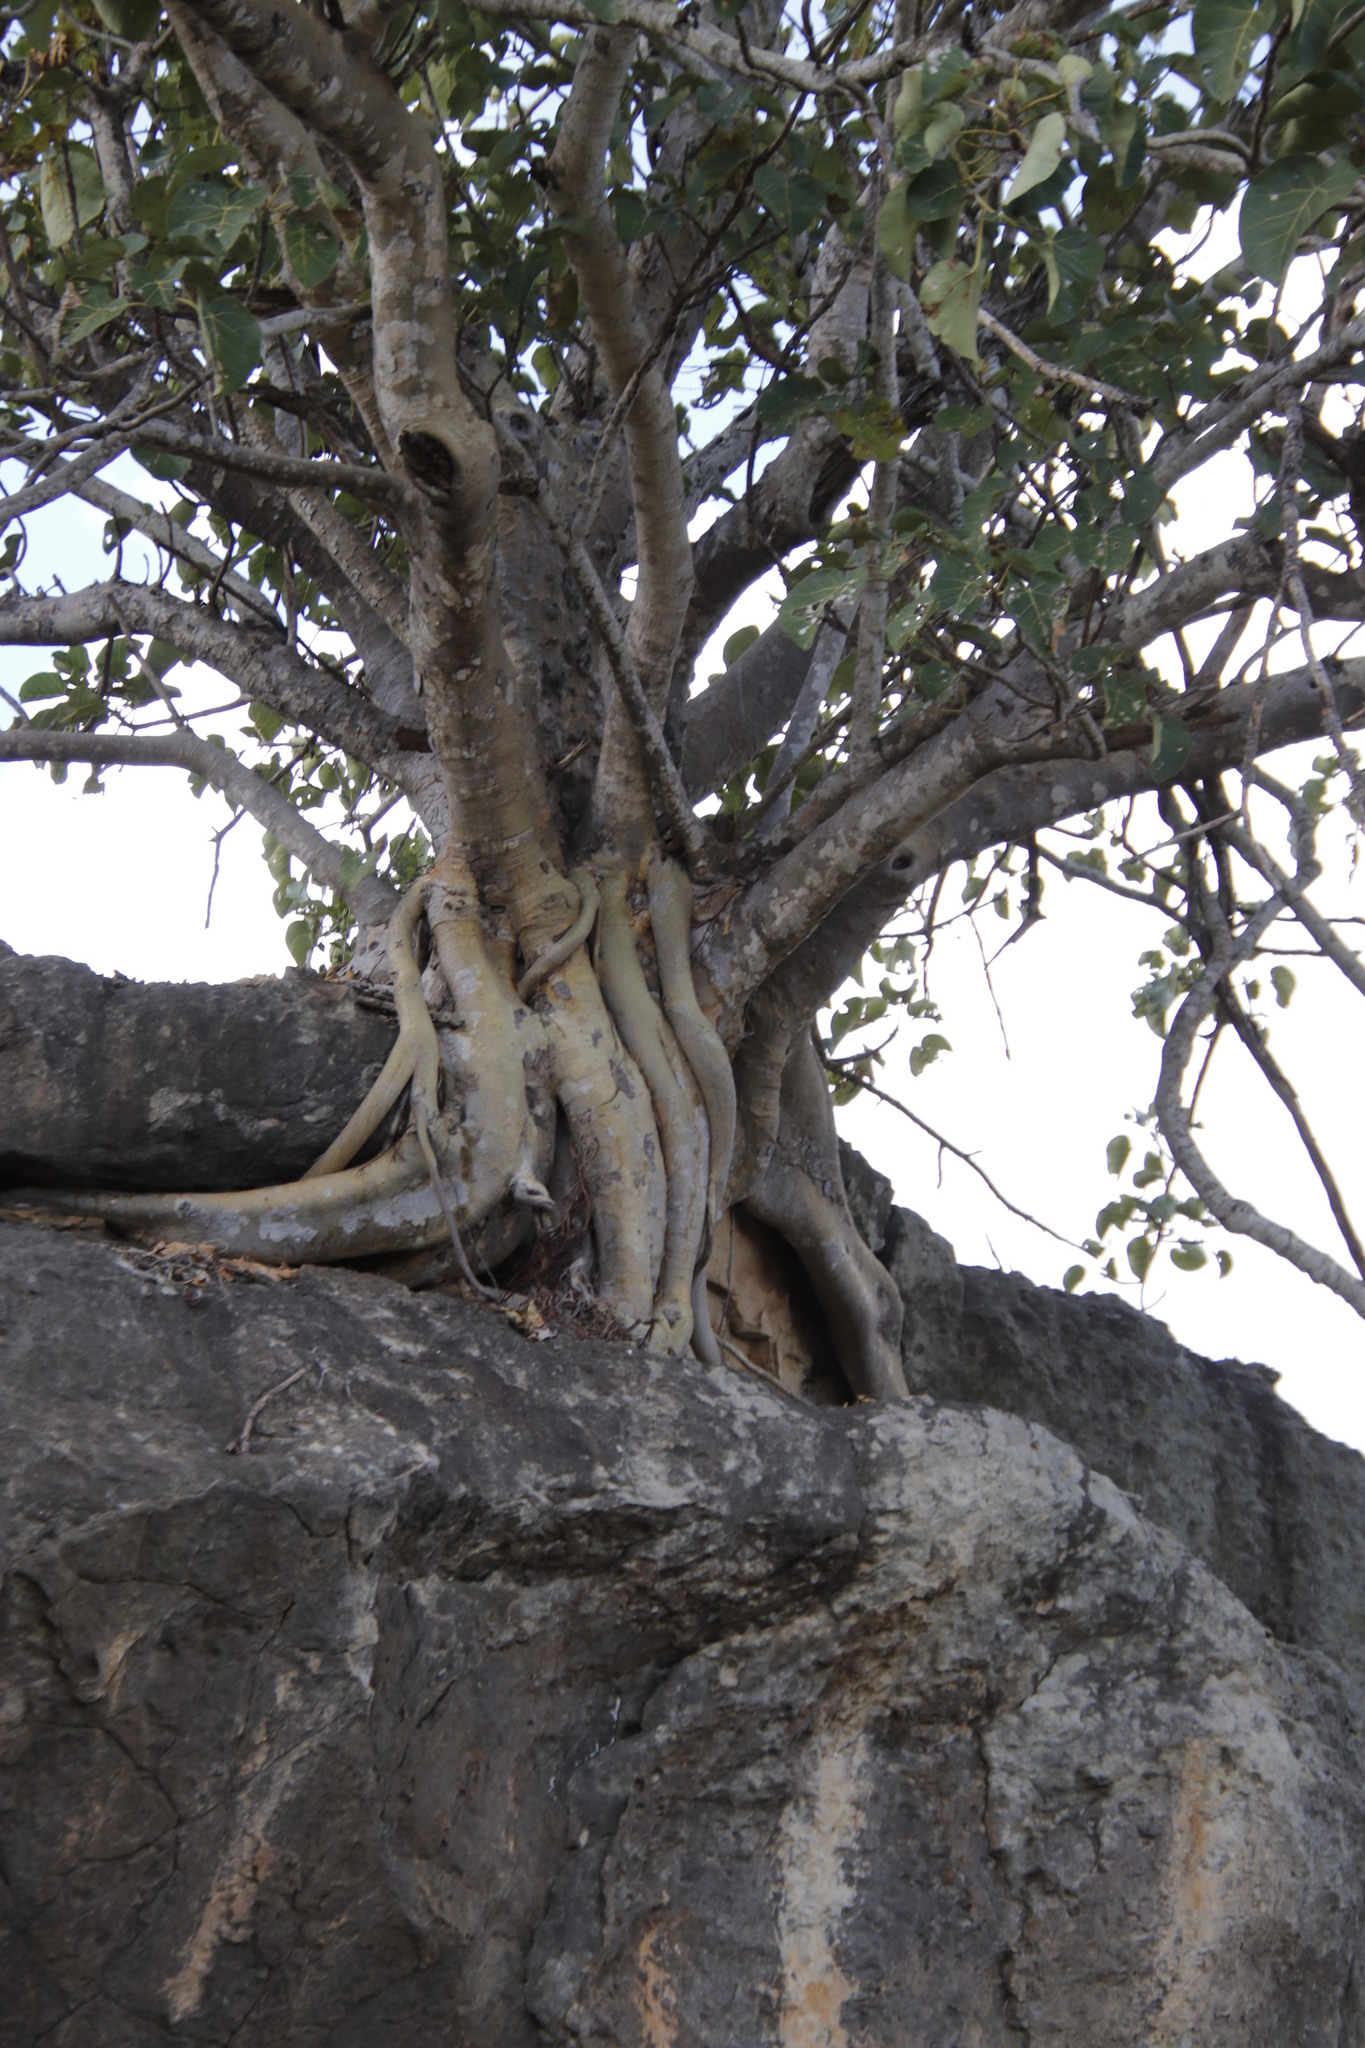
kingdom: Plantae
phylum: Tracheophyta
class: Magnoliopsida
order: Rosales
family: Moraceae
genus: Ficus
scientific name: Ficus abutilifolia
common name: Large-leaved rock fig
